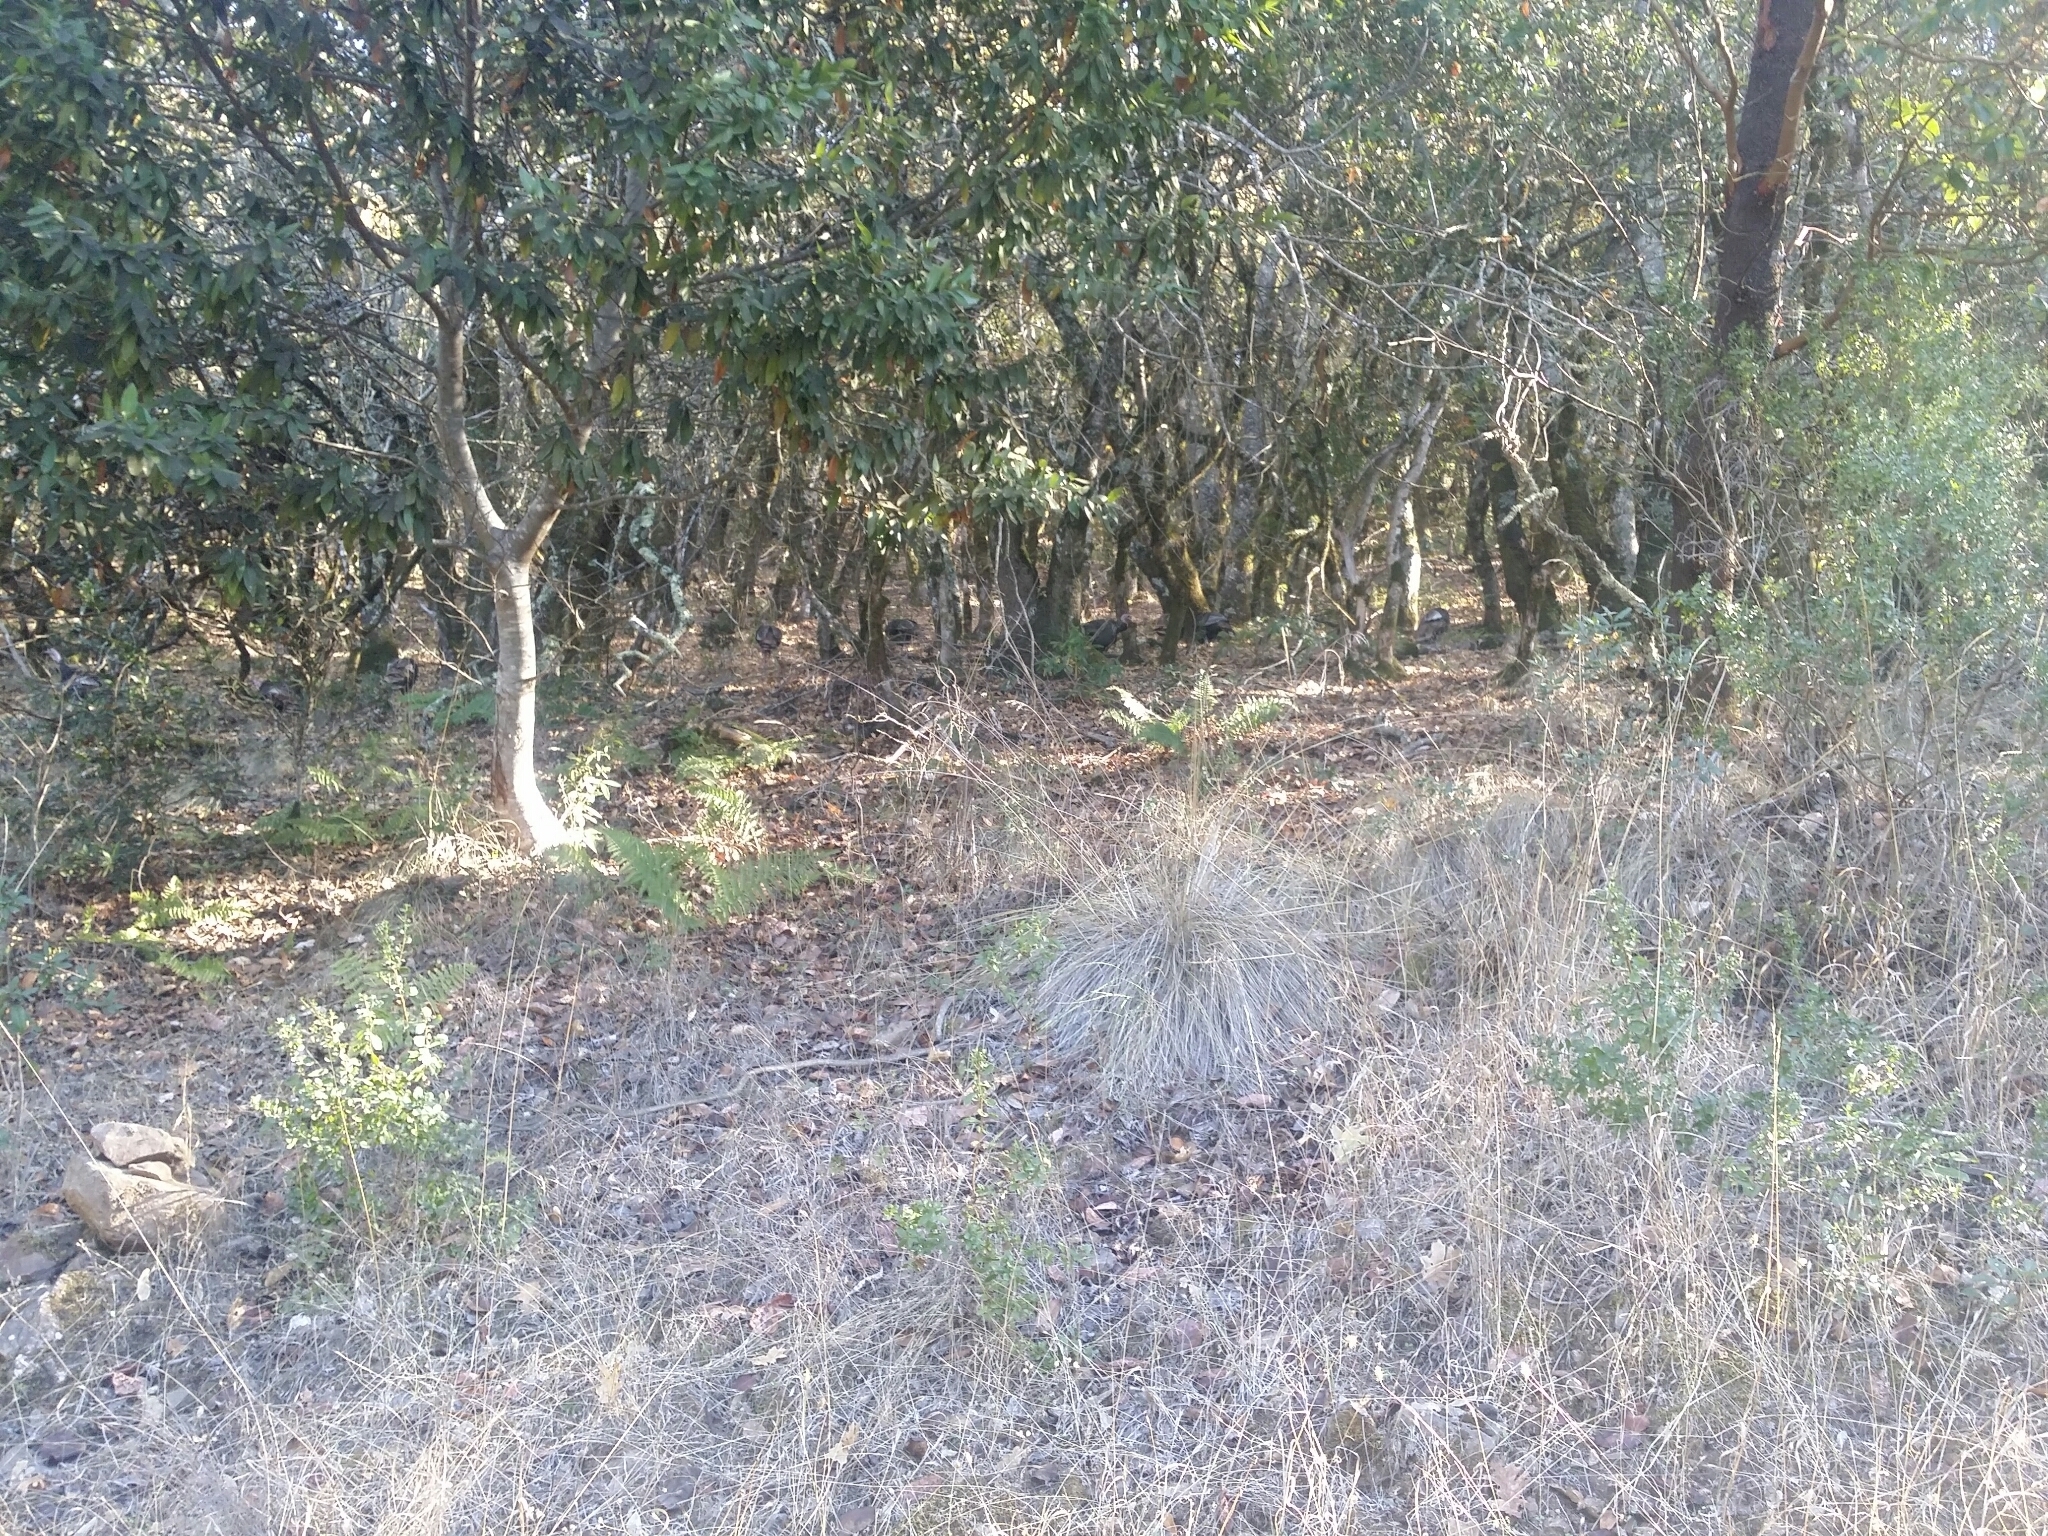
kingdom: Animalia
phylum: Chordata
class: Aves
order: Galliformes
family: Phasianidae
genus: Meleagris
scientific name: Meleagris gallopavo
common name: Wild turkey
